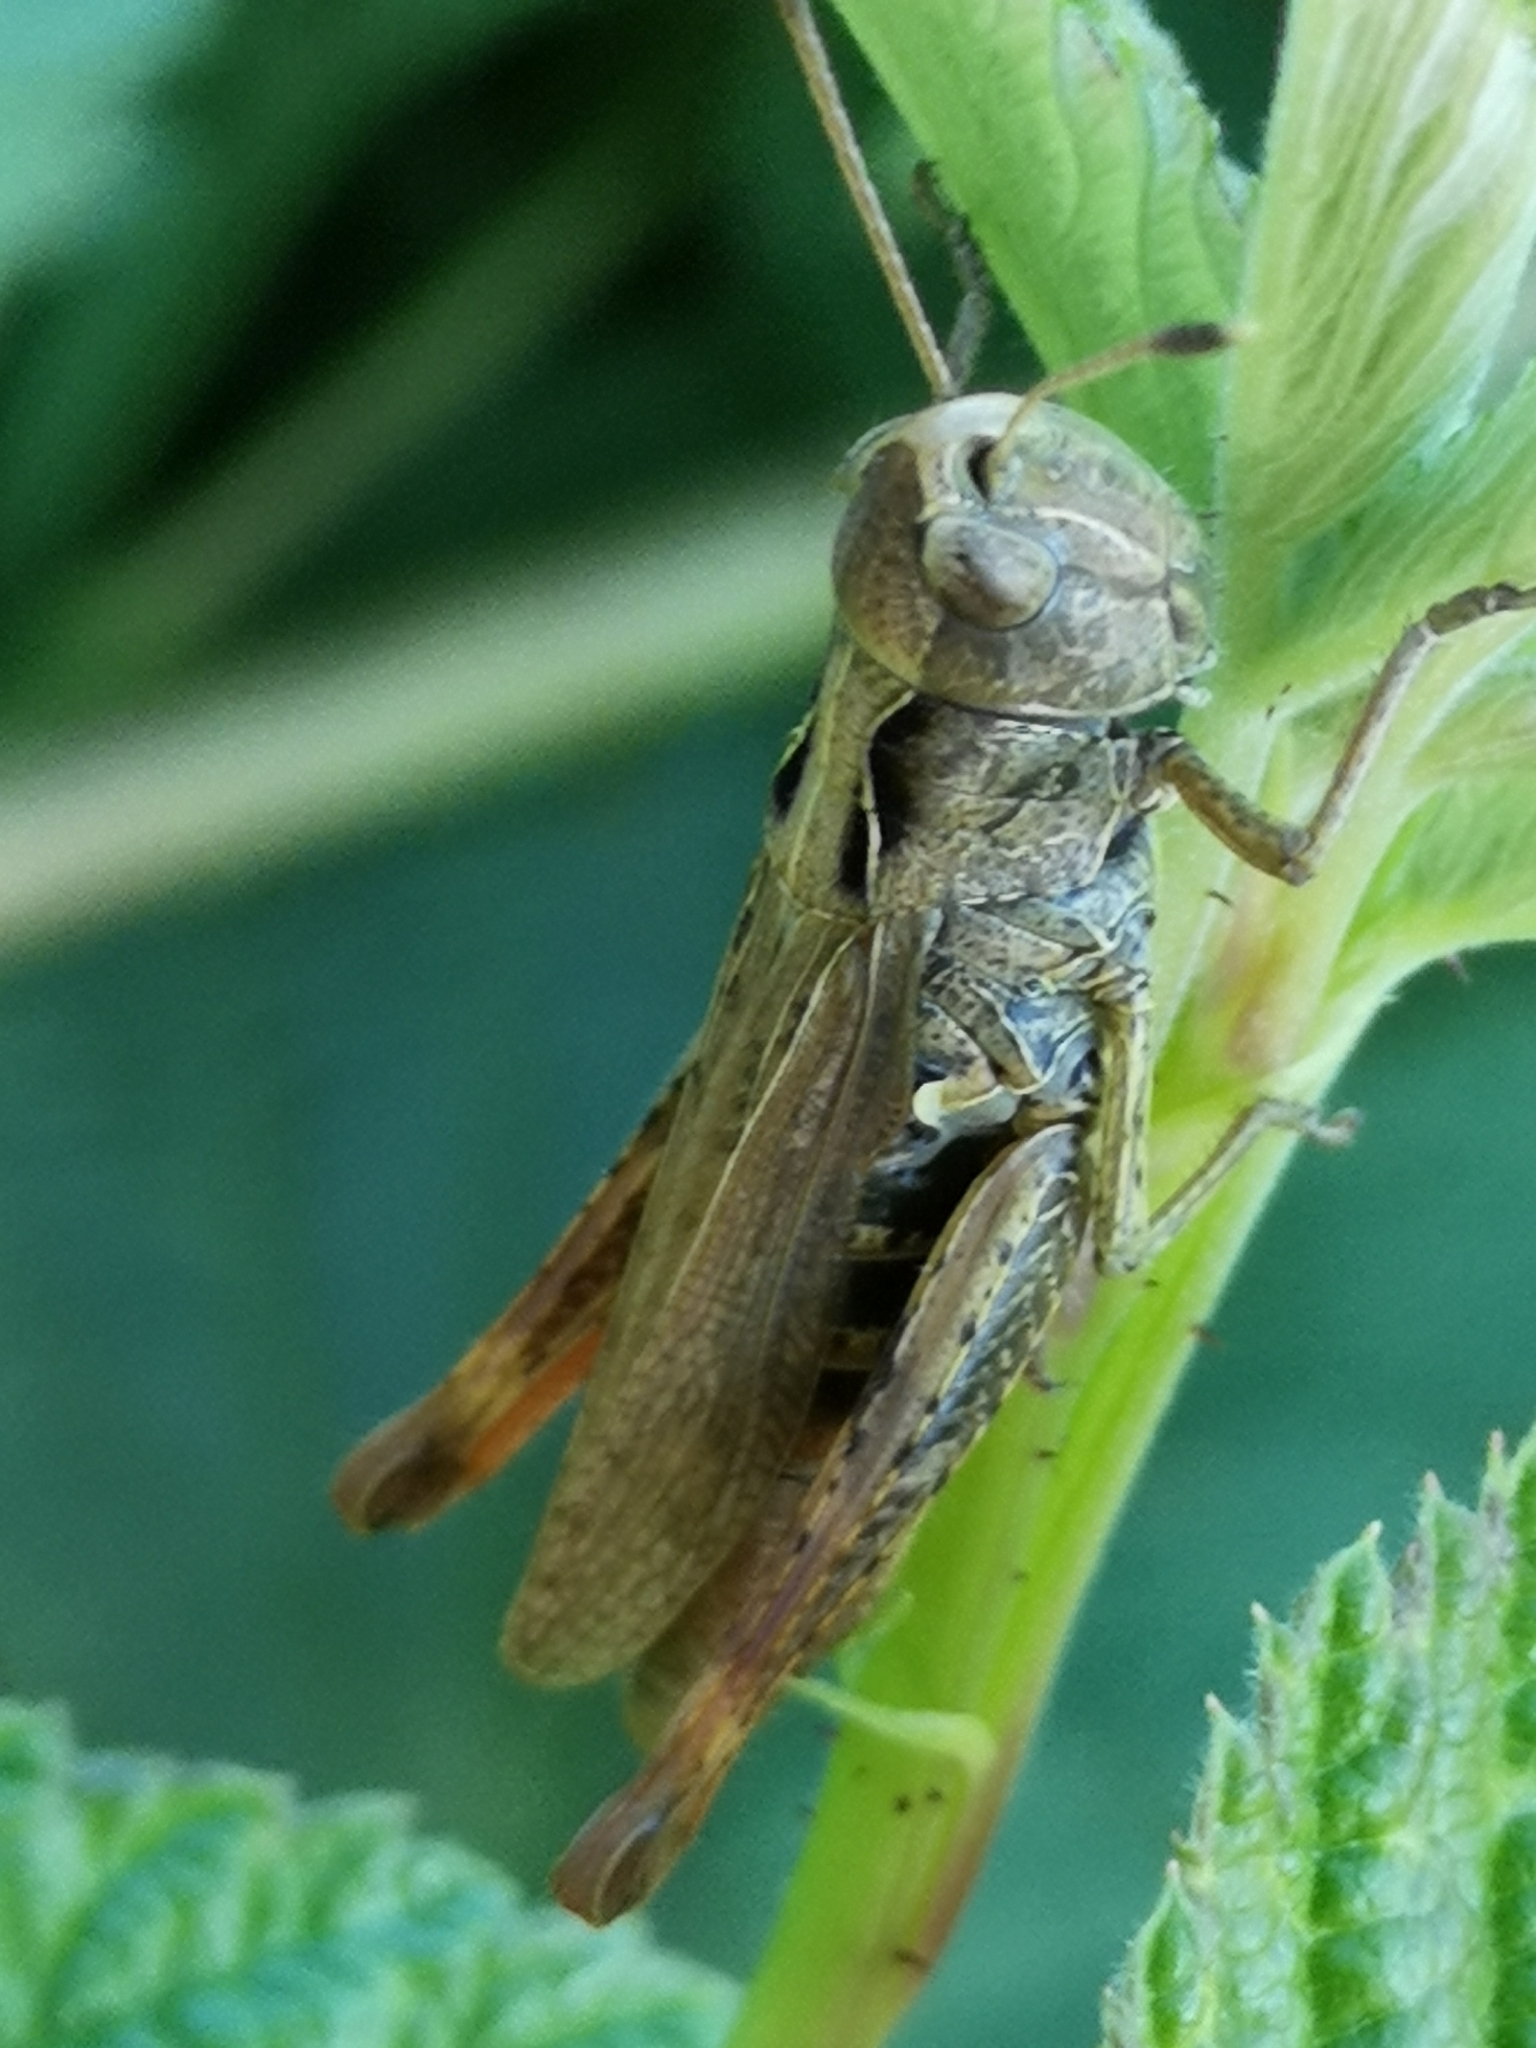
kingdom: Animalia
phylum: Arthropoda
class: Insecta
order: Orthoptera
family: Acrididae
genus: Gomphocerippus
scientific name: Gomphocerippus rufus
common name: Rufous grasshopper
